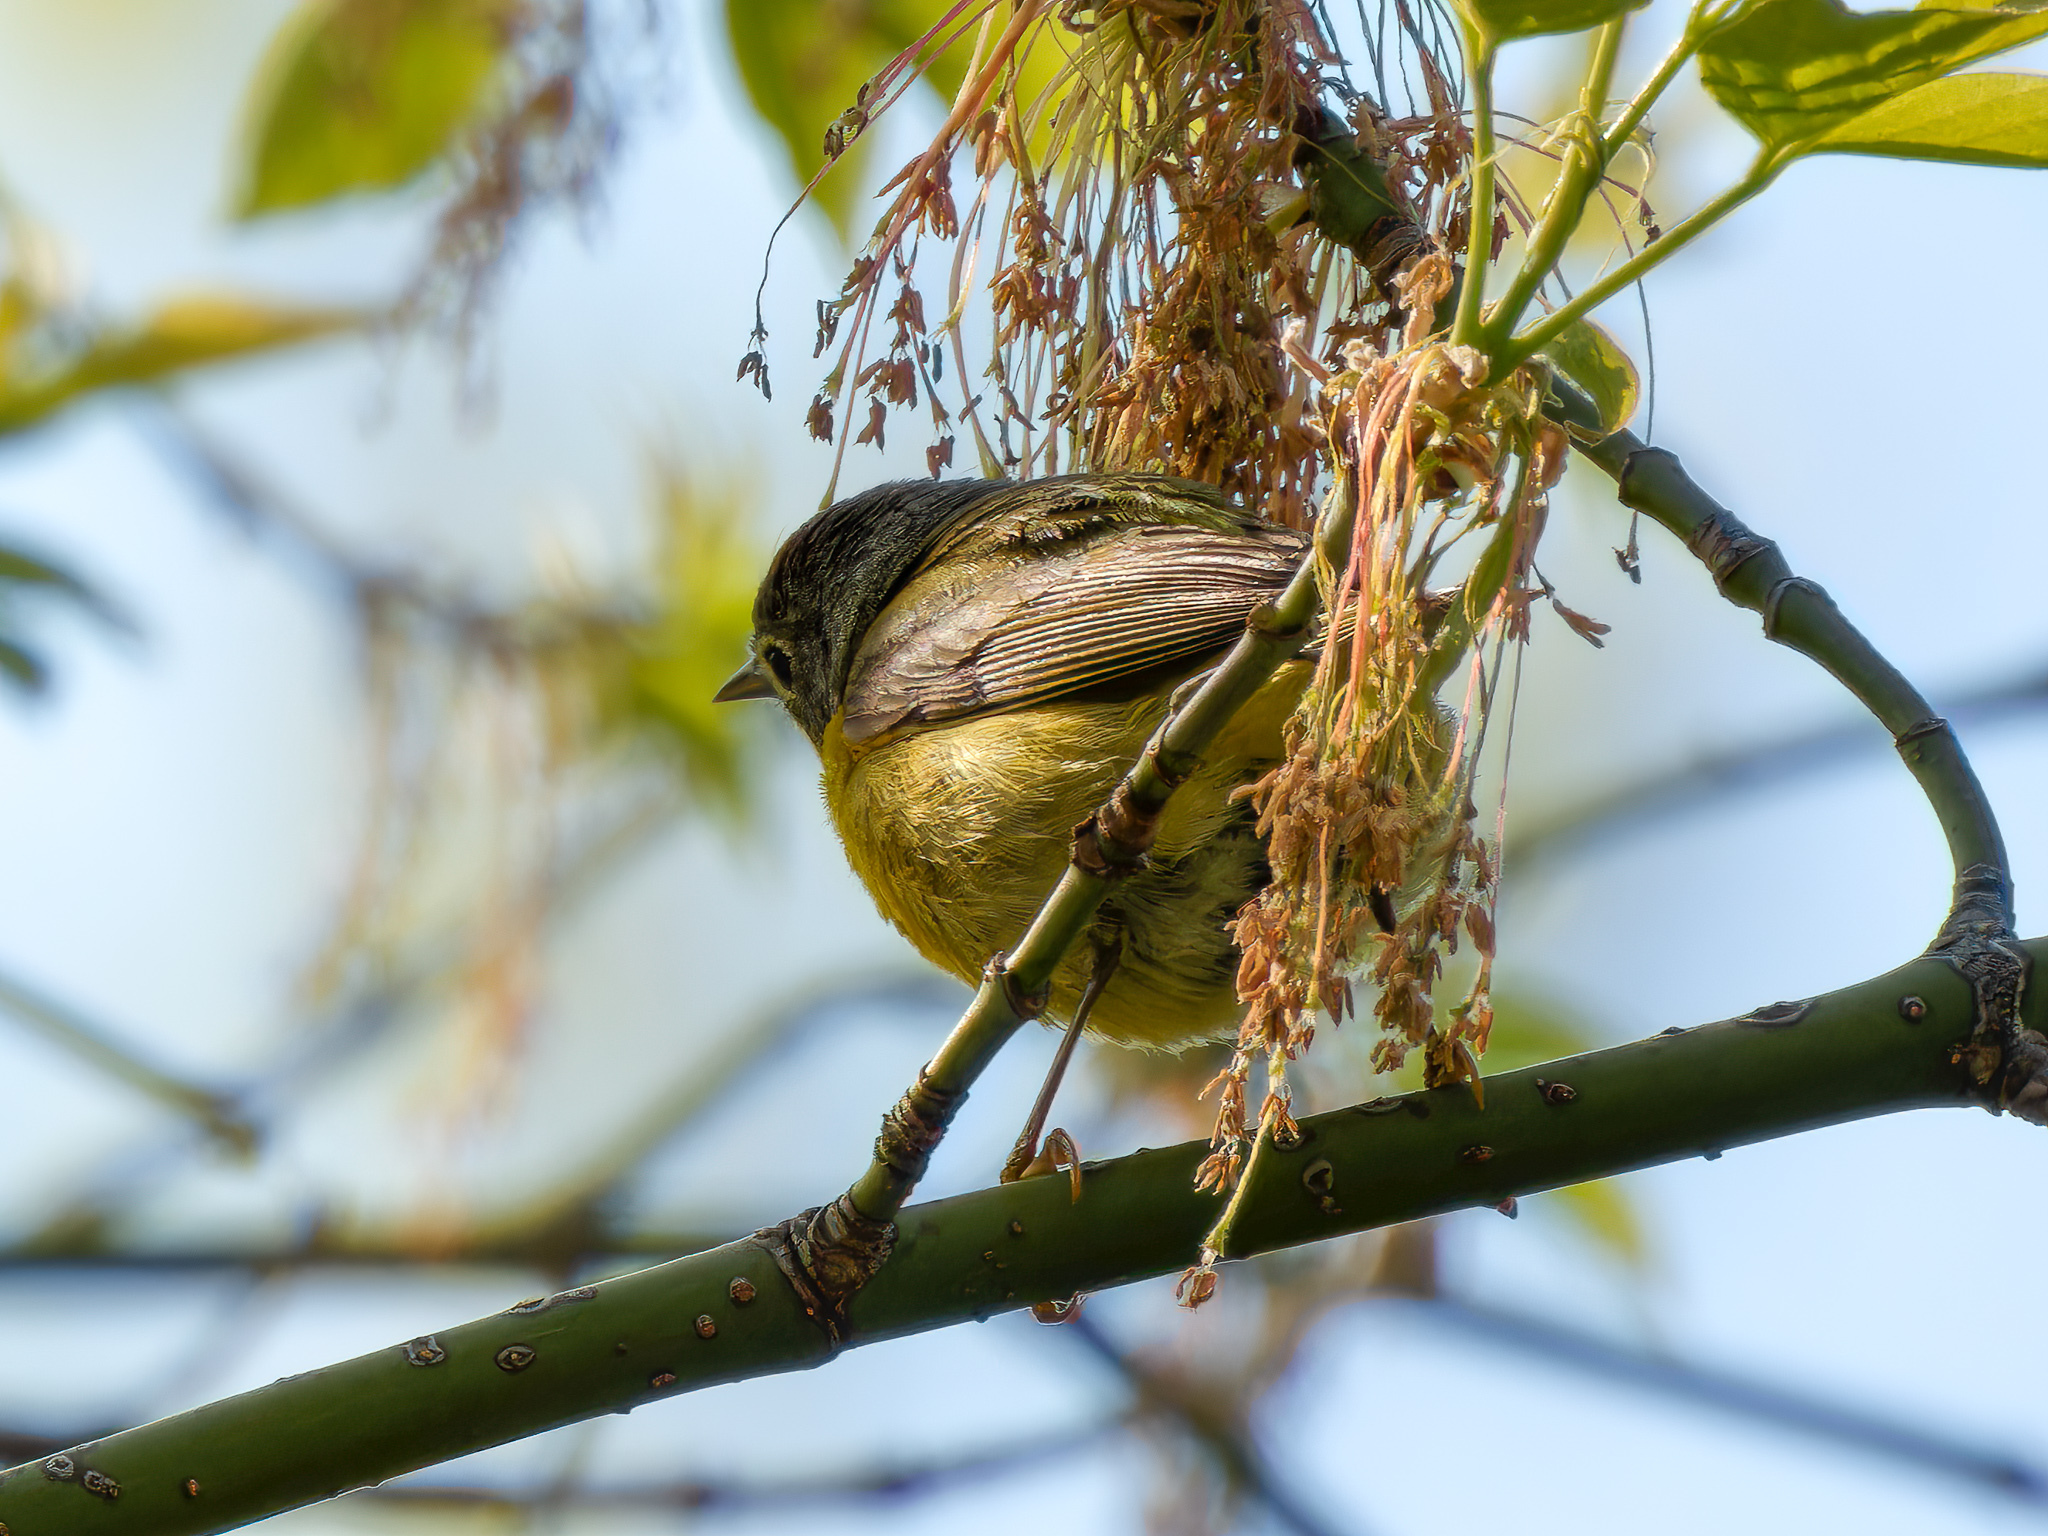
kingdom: Animalia
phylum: Chordata
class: Aves
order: Passeriformes
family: Parulidae
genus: Leiothlypis
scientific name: Leiothlypis ruficapilla
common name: Nashville warbler
